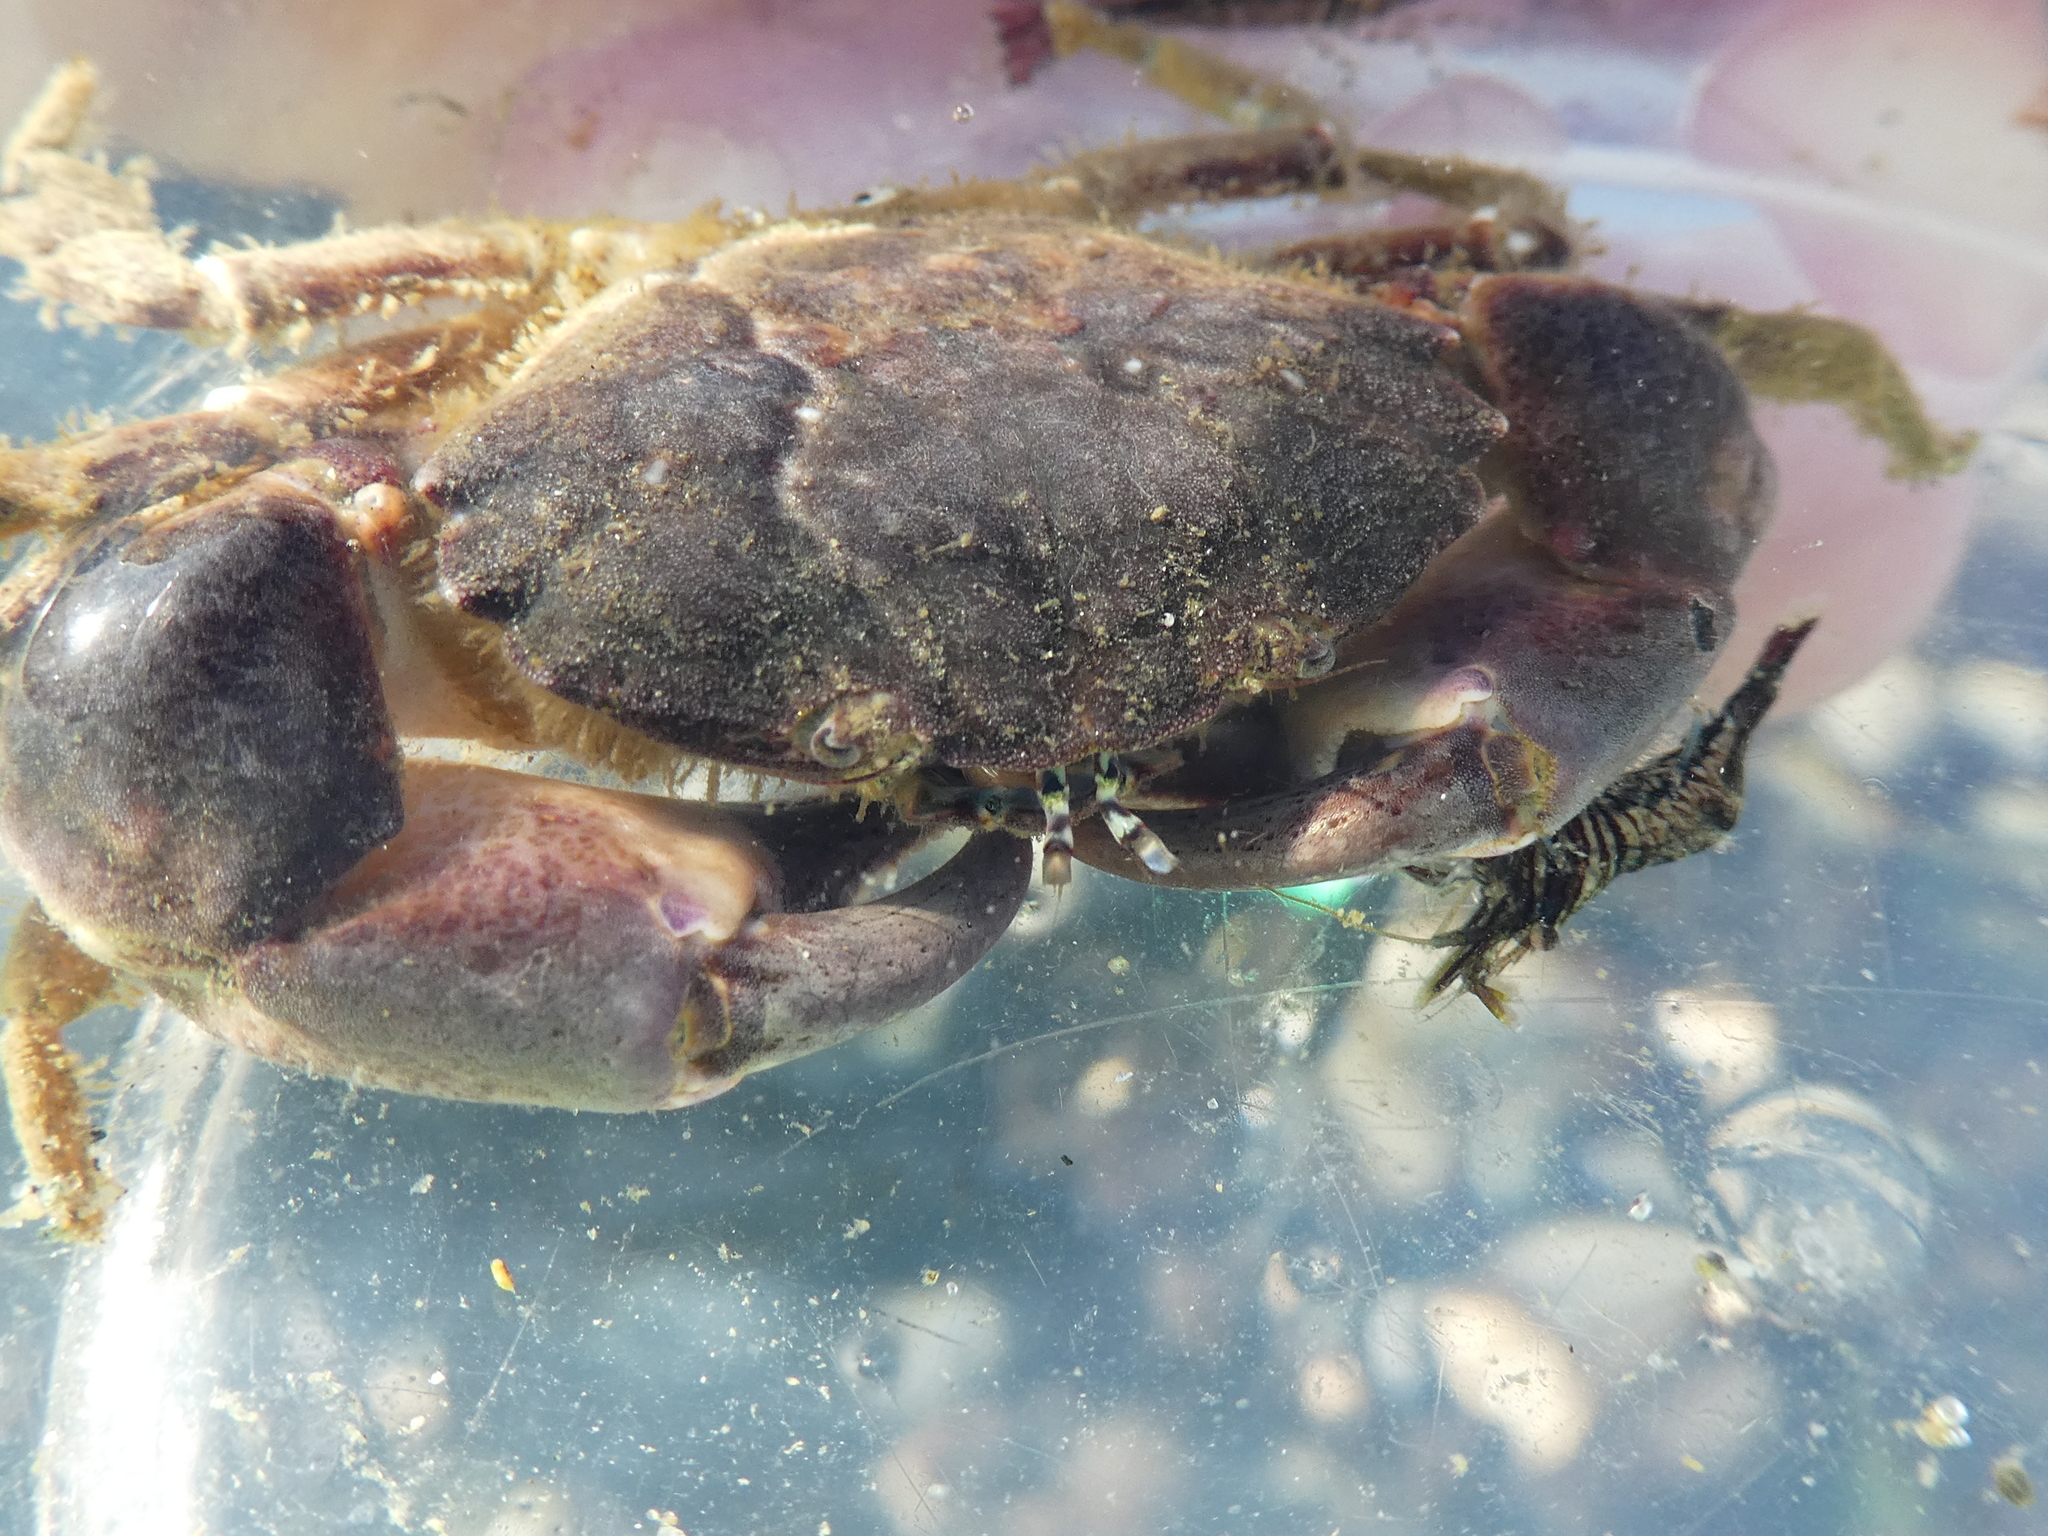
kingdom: Animalia
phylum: Arthropoda
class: Malacostraca
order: Decapoda
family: Panopeidae
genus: Lophopanopeus
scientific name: Lophopanopeus bellus
